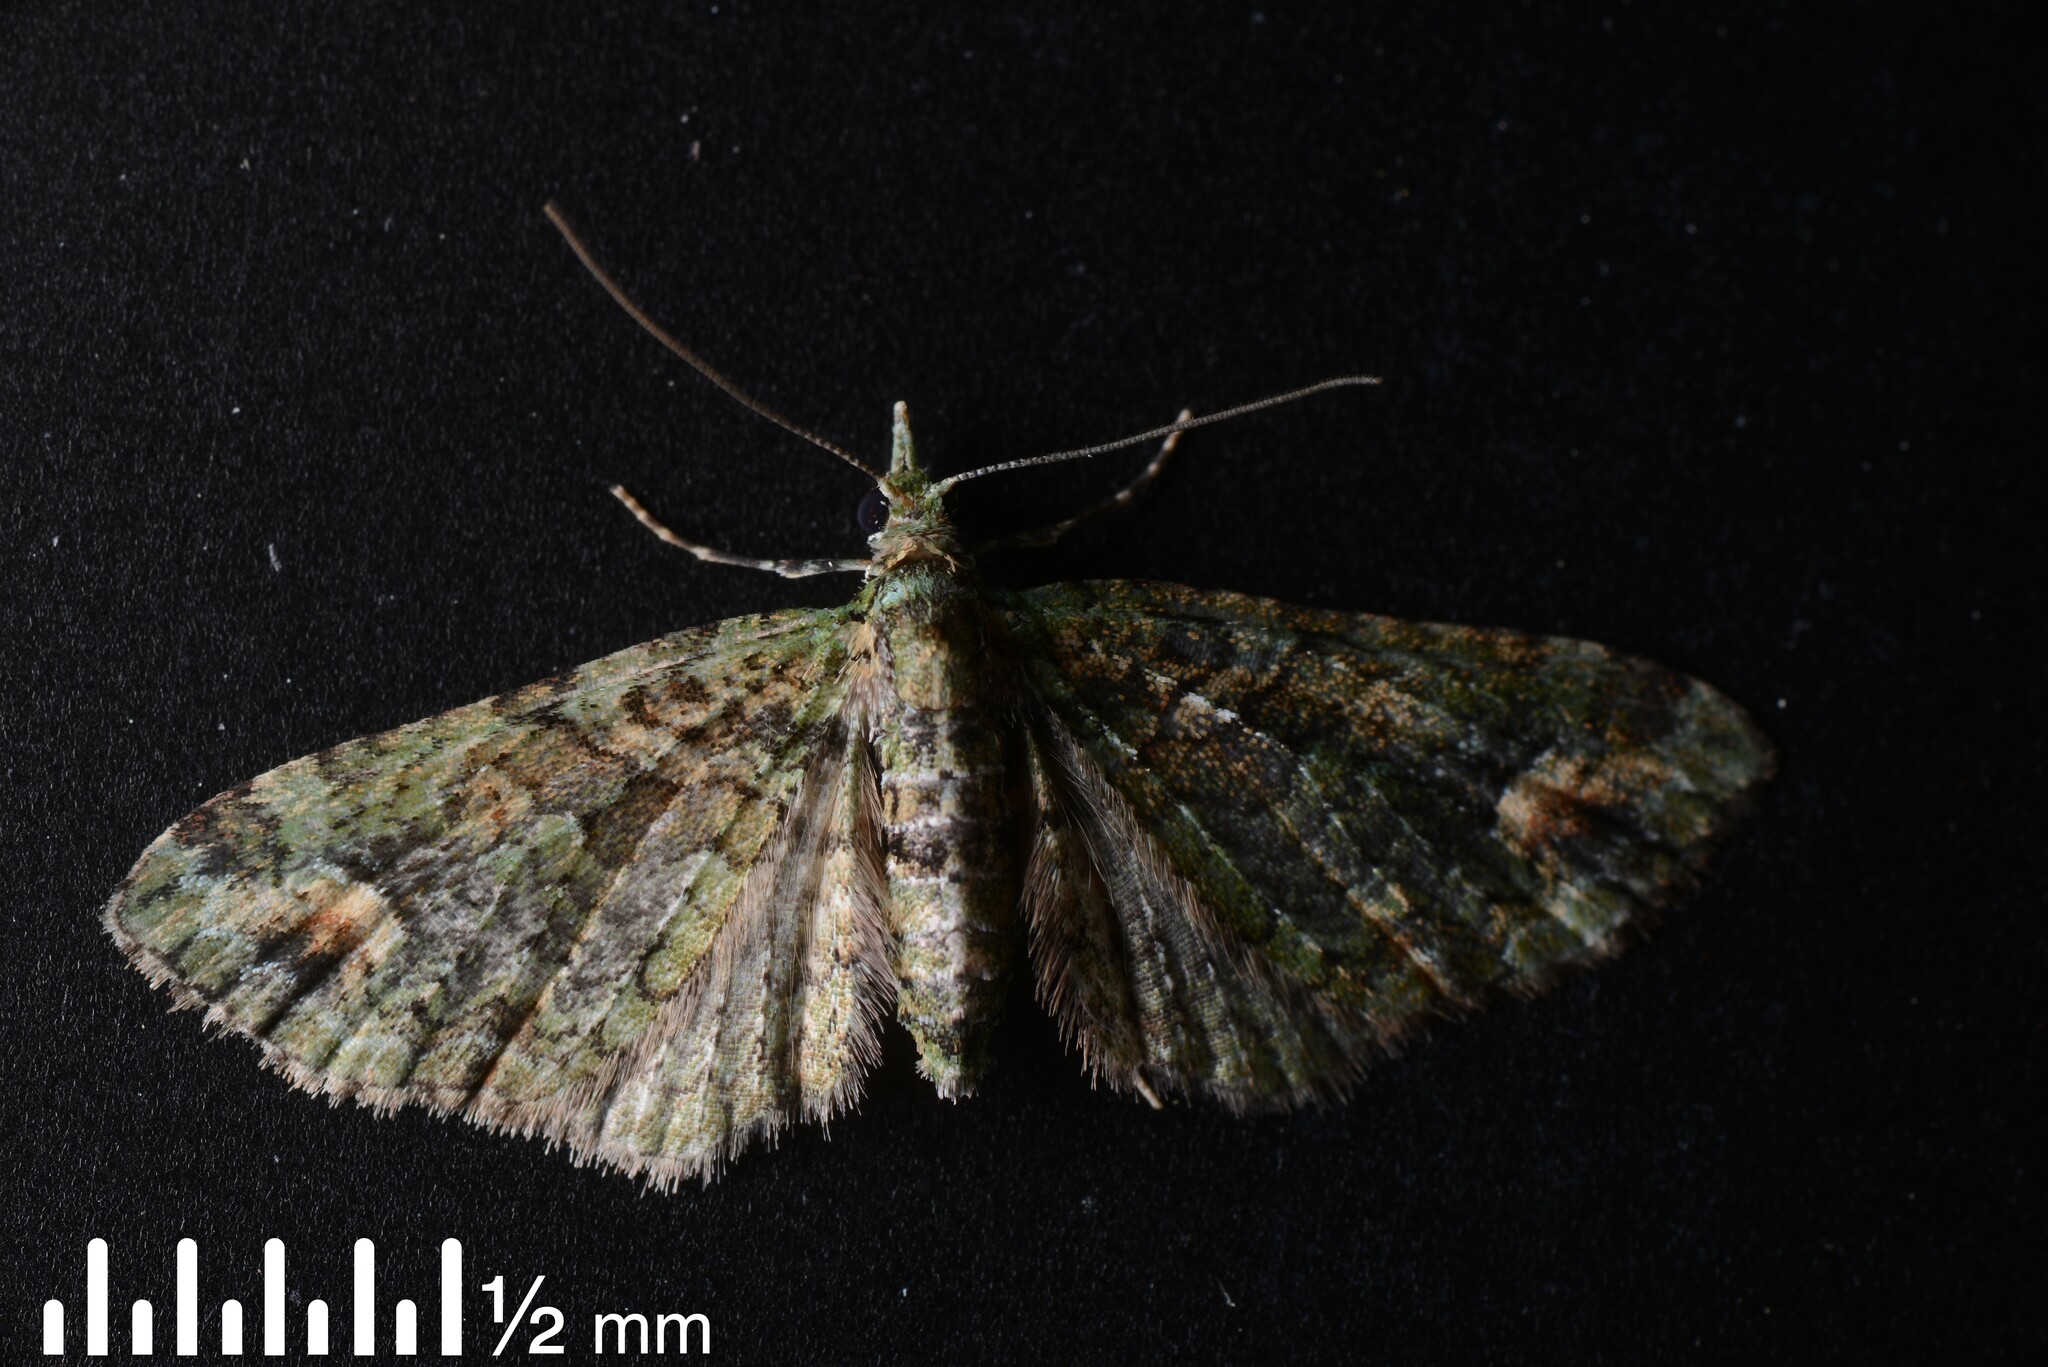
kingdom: Animalia
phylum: Arthropoda
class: Insecta
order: Lepidoptera
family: Geometridae
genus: Idaea
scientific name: Idaea mutanda
